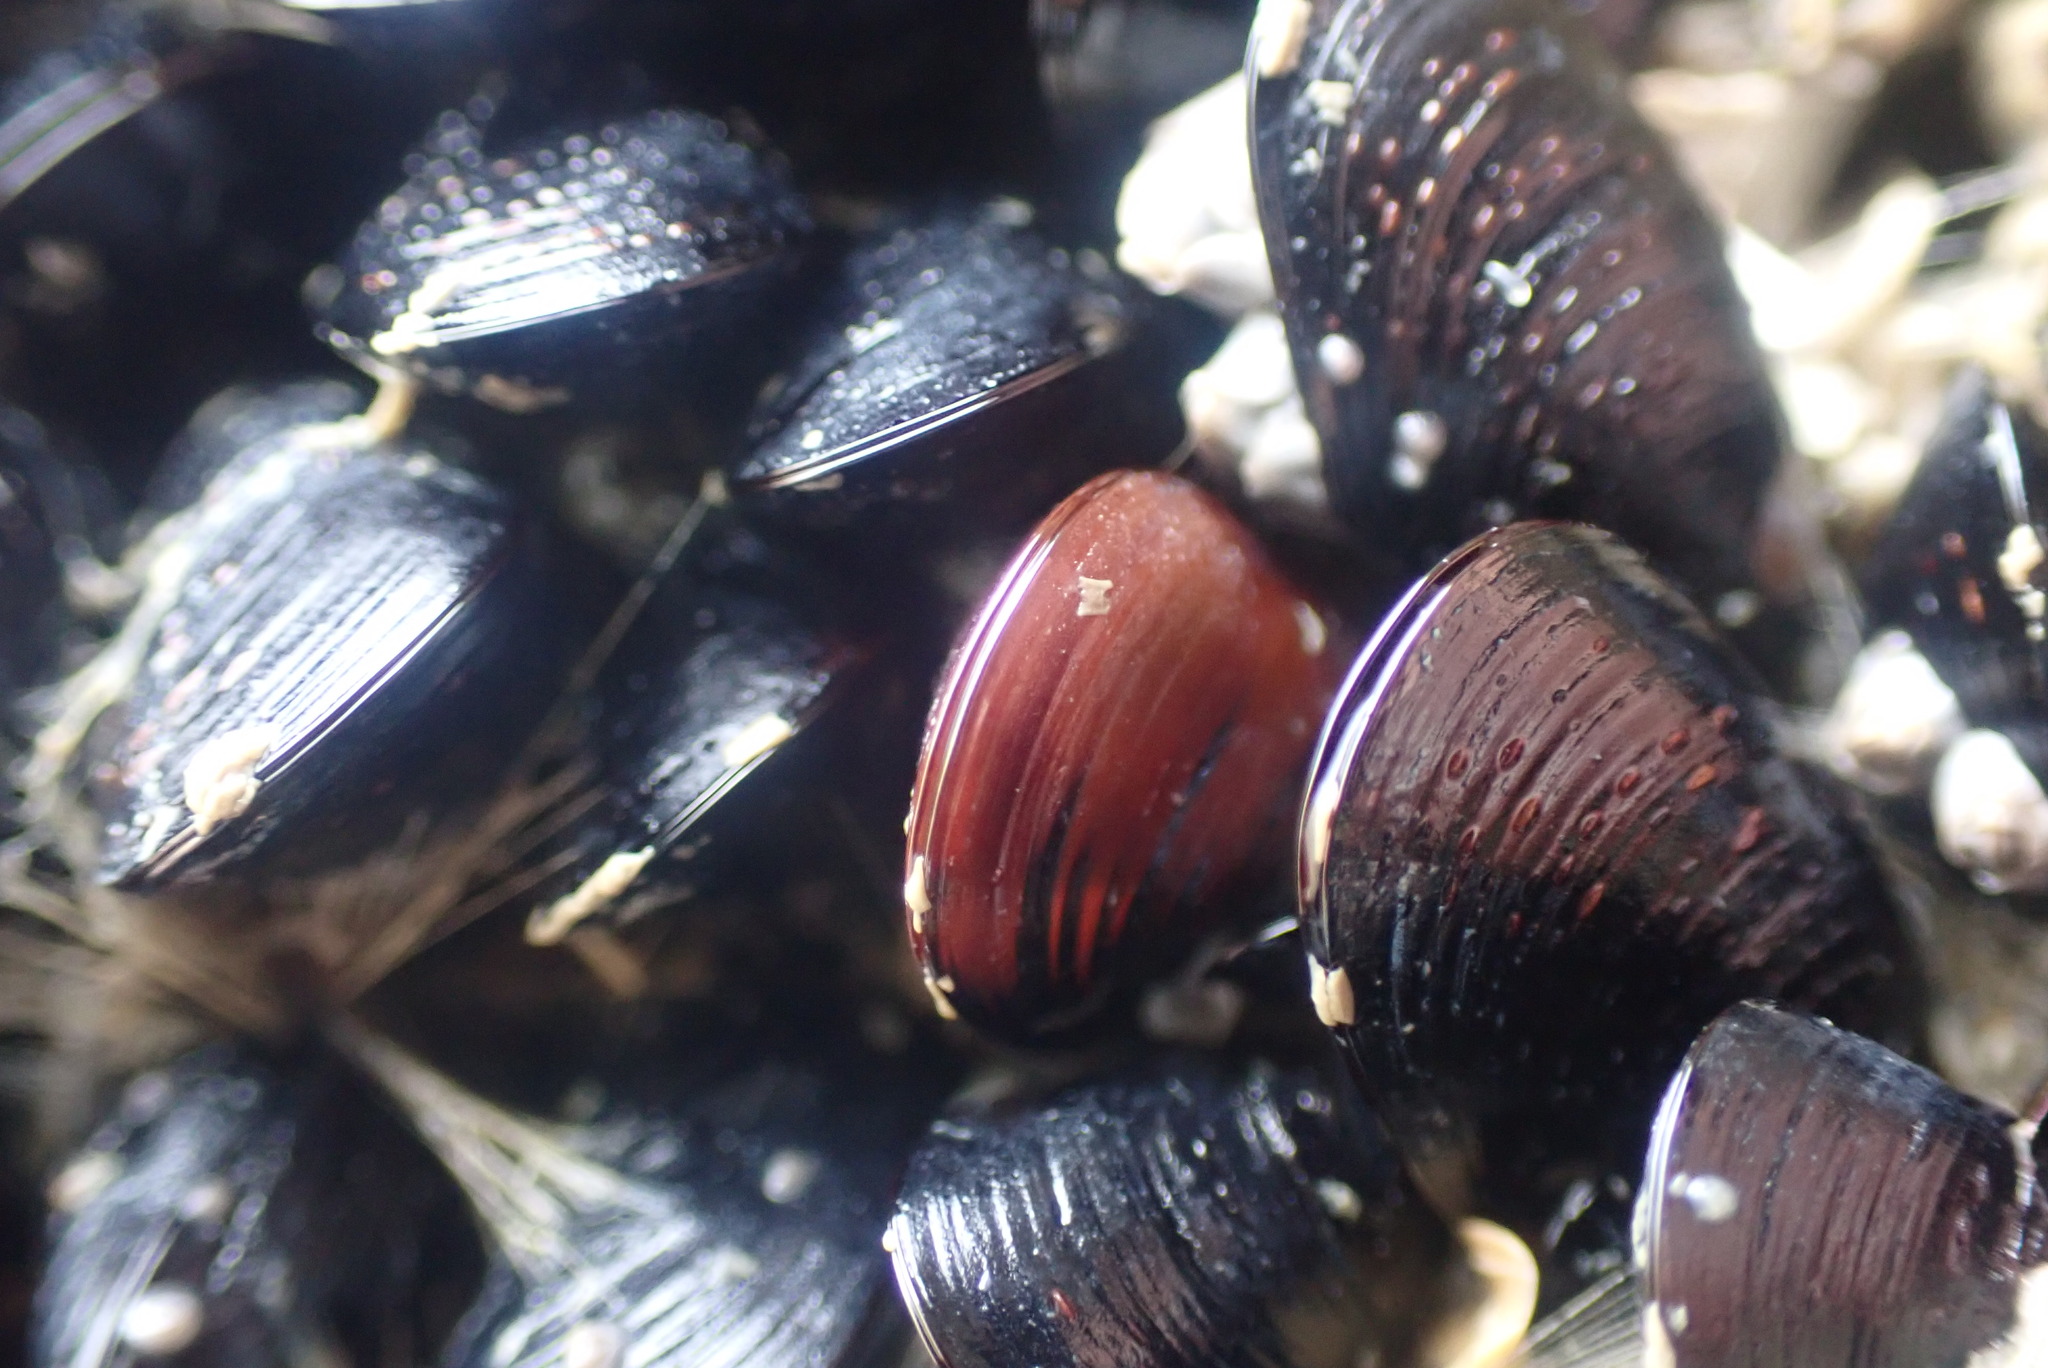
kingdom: Animalia
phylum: Mollusca
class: Bivalvia
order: Mytilida
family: Mytilidae
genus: Xenostrobus
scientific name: Xenostrobus neozelanicus
